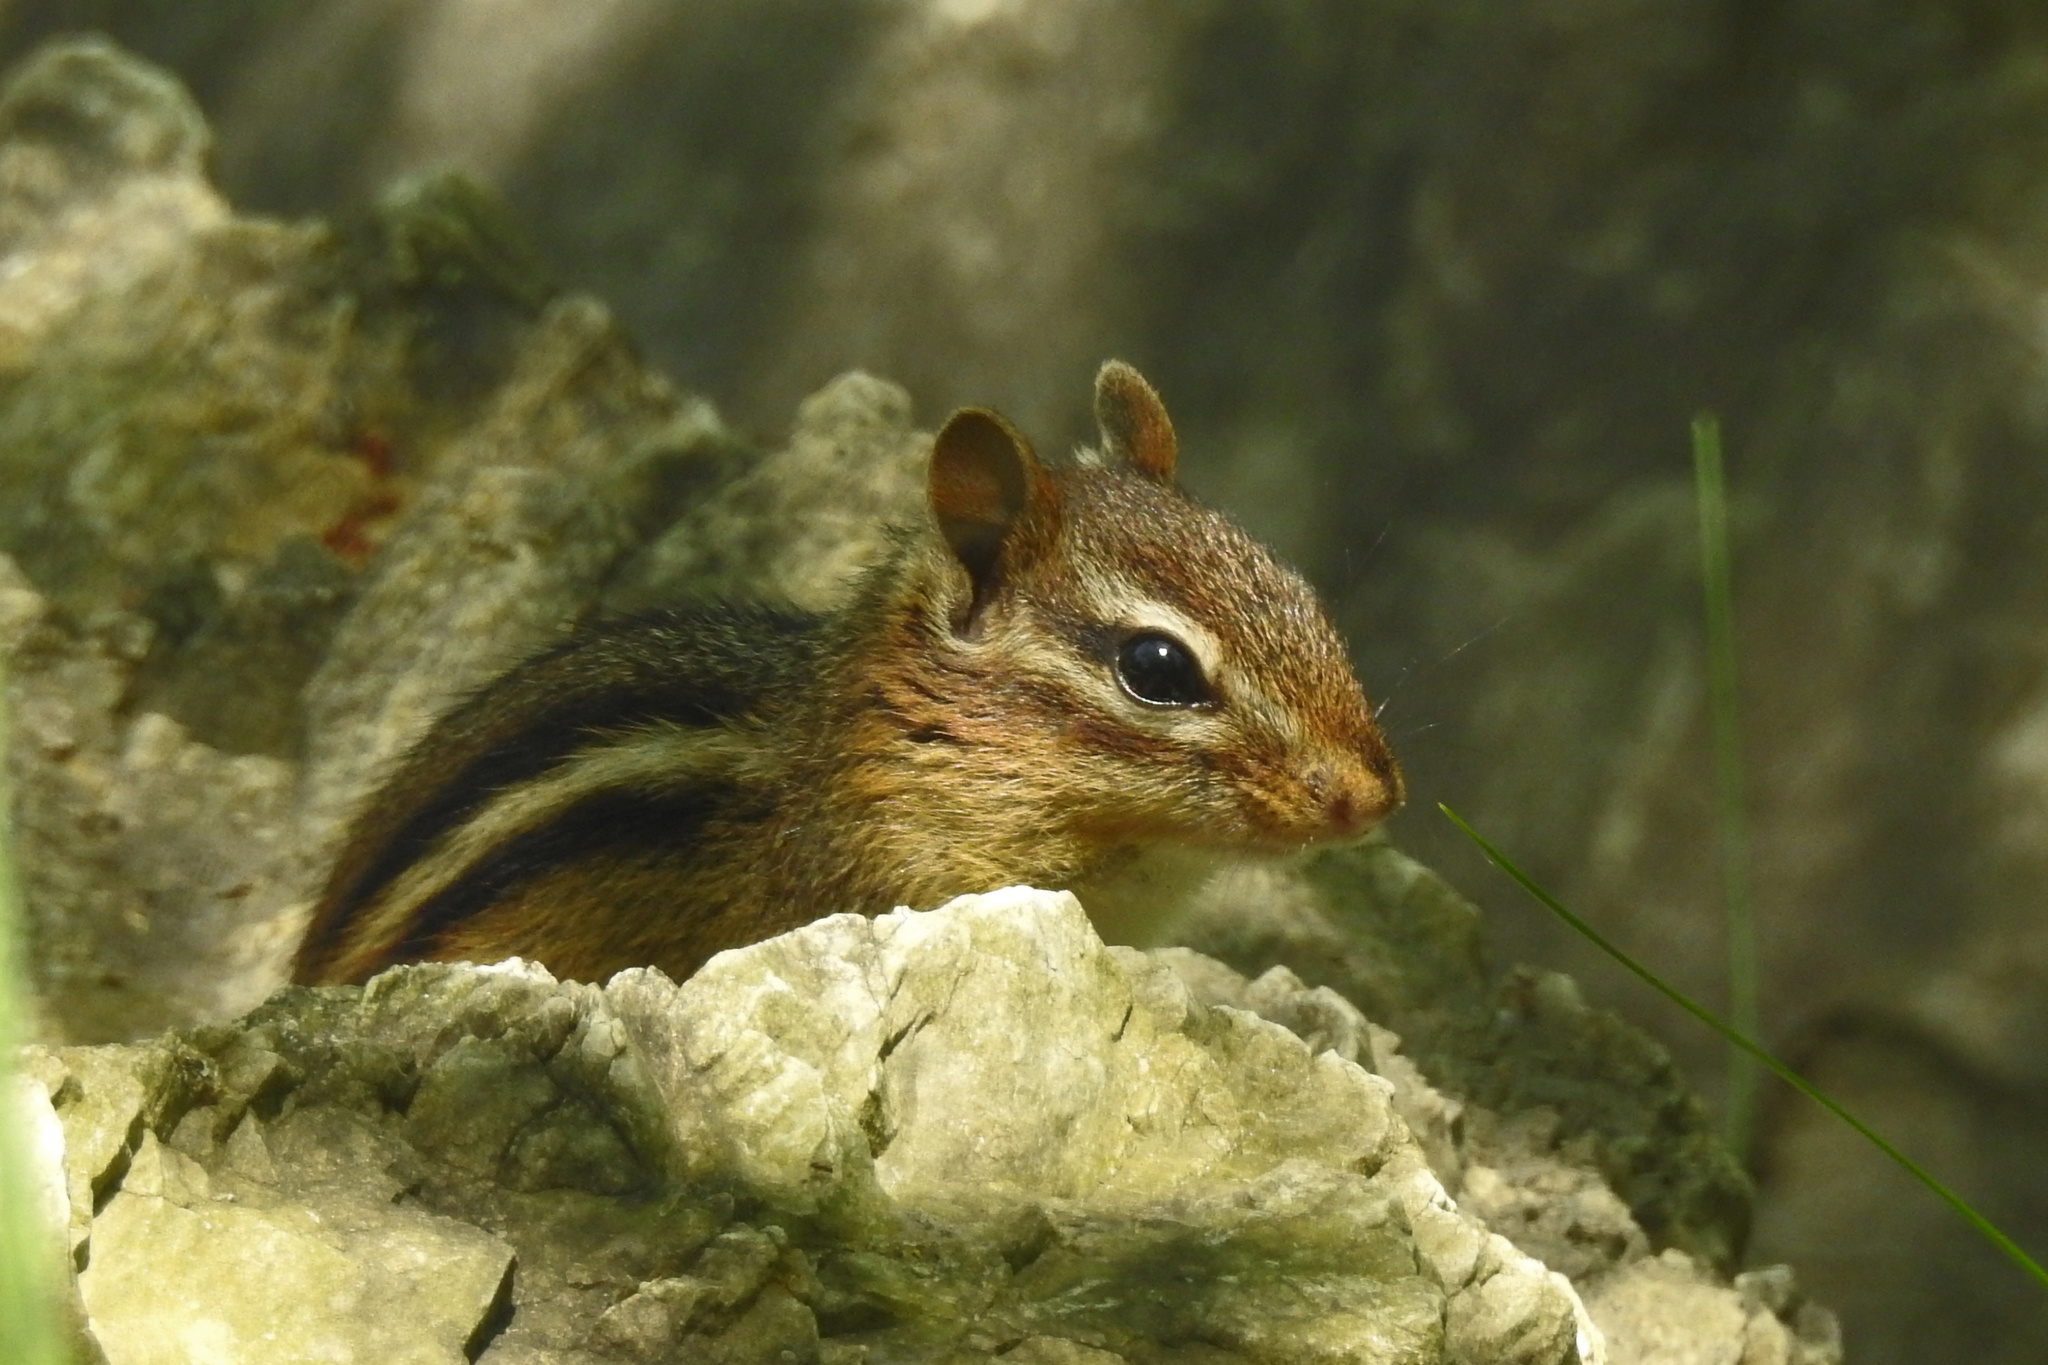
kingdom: Animalia
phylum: Chordata
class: Mammalia
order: Rodentia
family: Sciuridae
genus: Tamias
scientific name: Tamias striatus
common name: Eastern chipmunk
